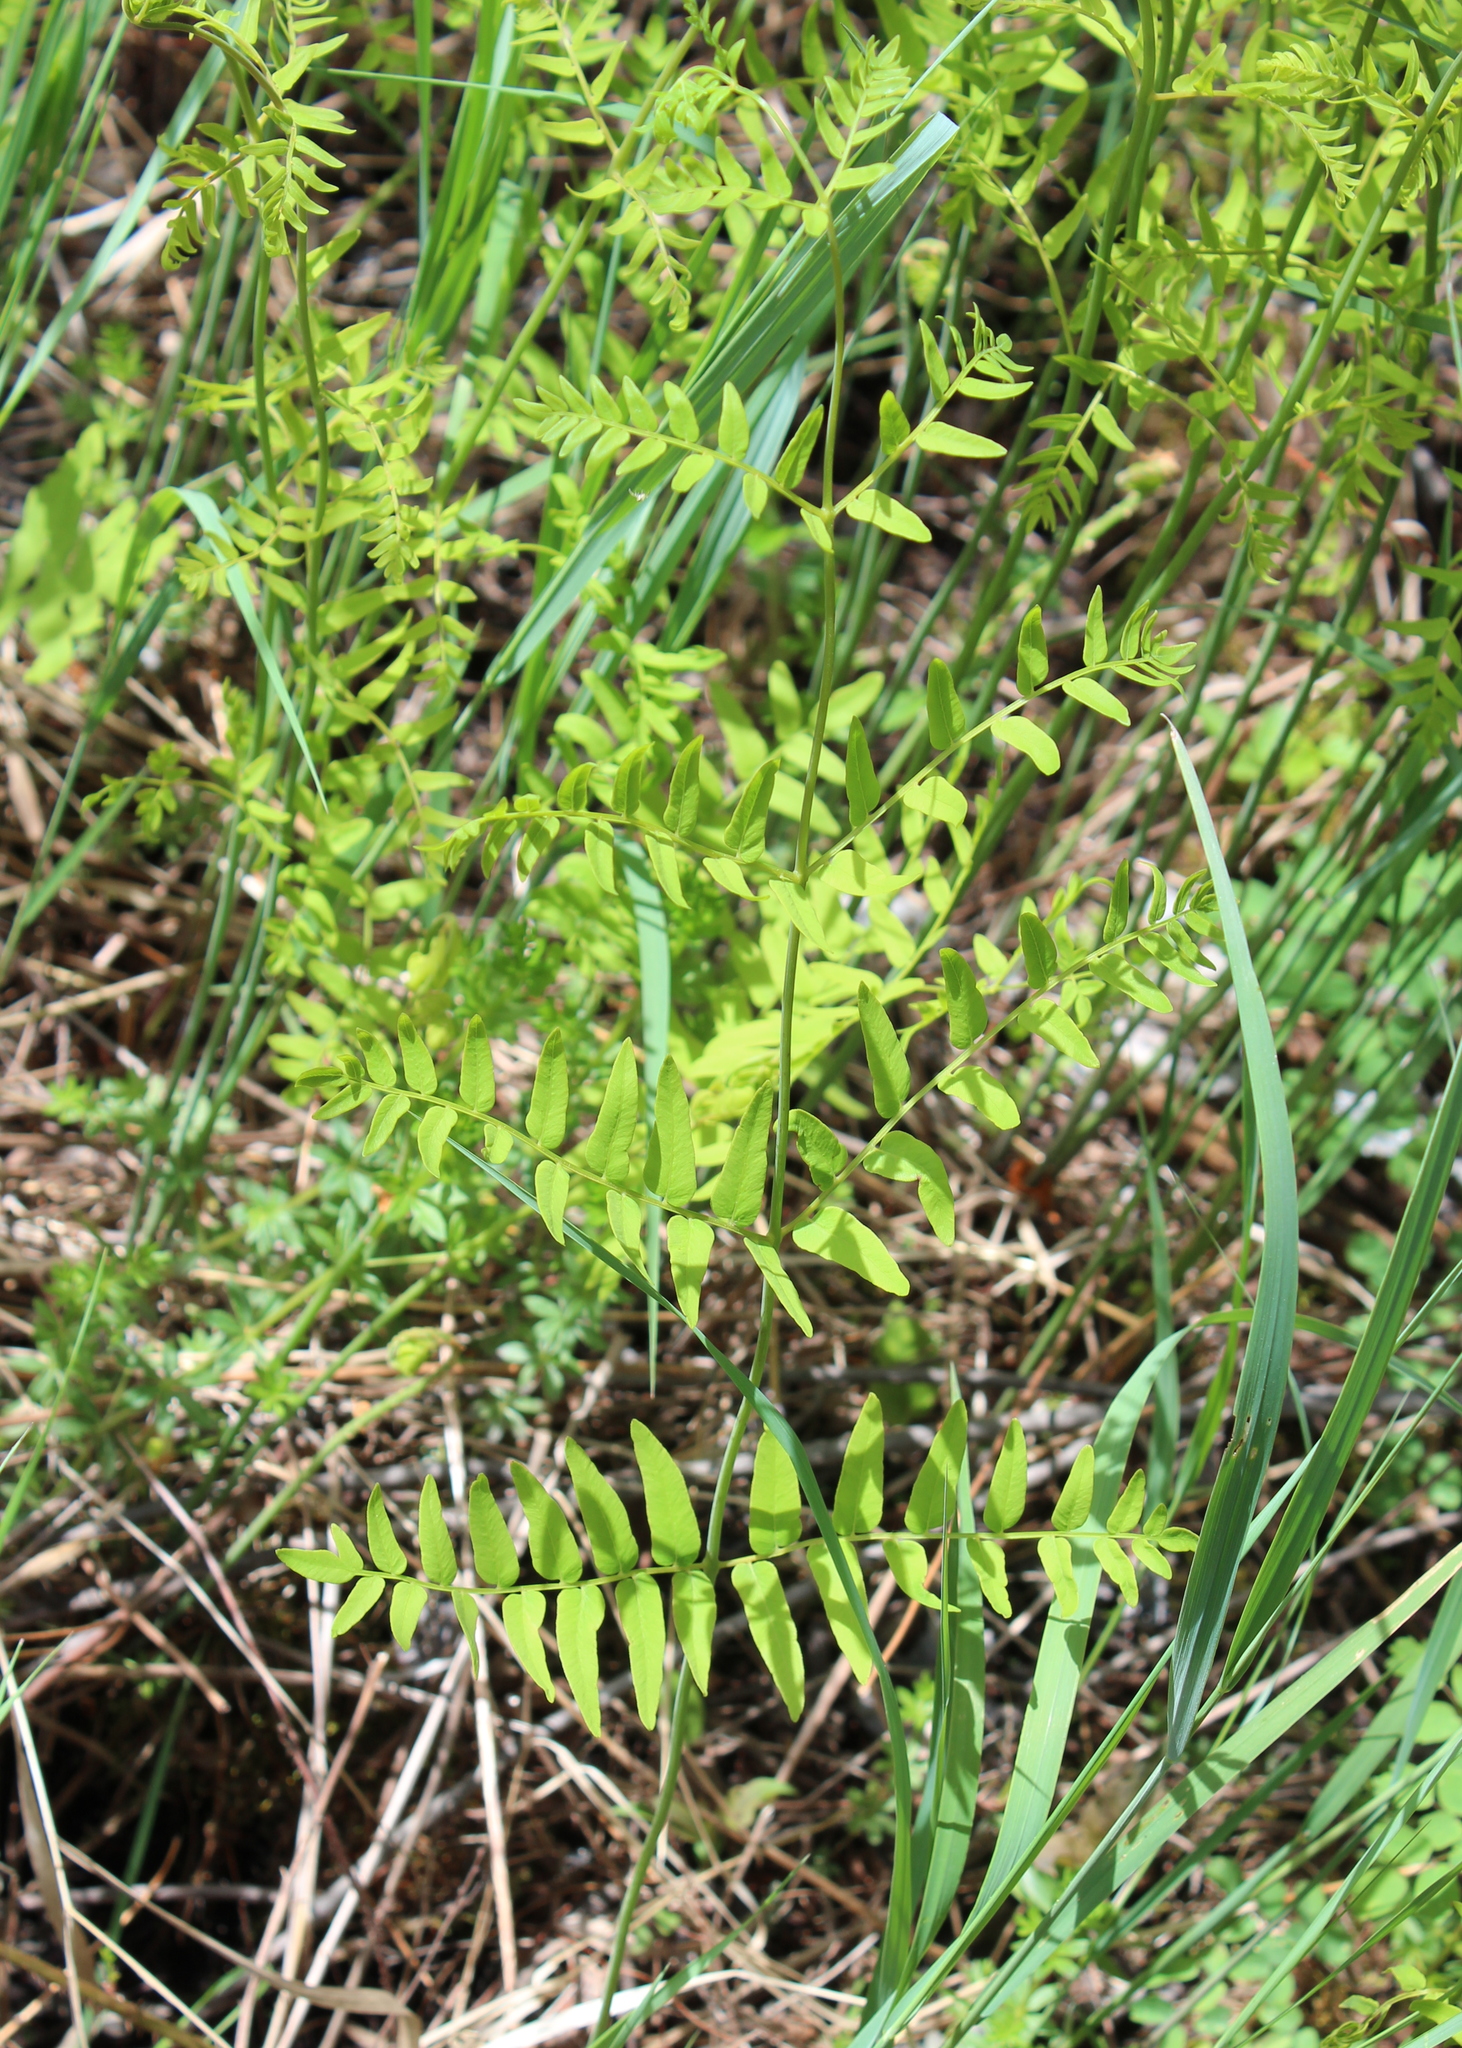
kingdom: Plantae
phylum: Tracheophyta
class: Polypodiopsida
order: Osmundales
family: Osmundaceae
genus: Osmunda
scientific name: Osmunda spectabilis
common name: American royal fern
